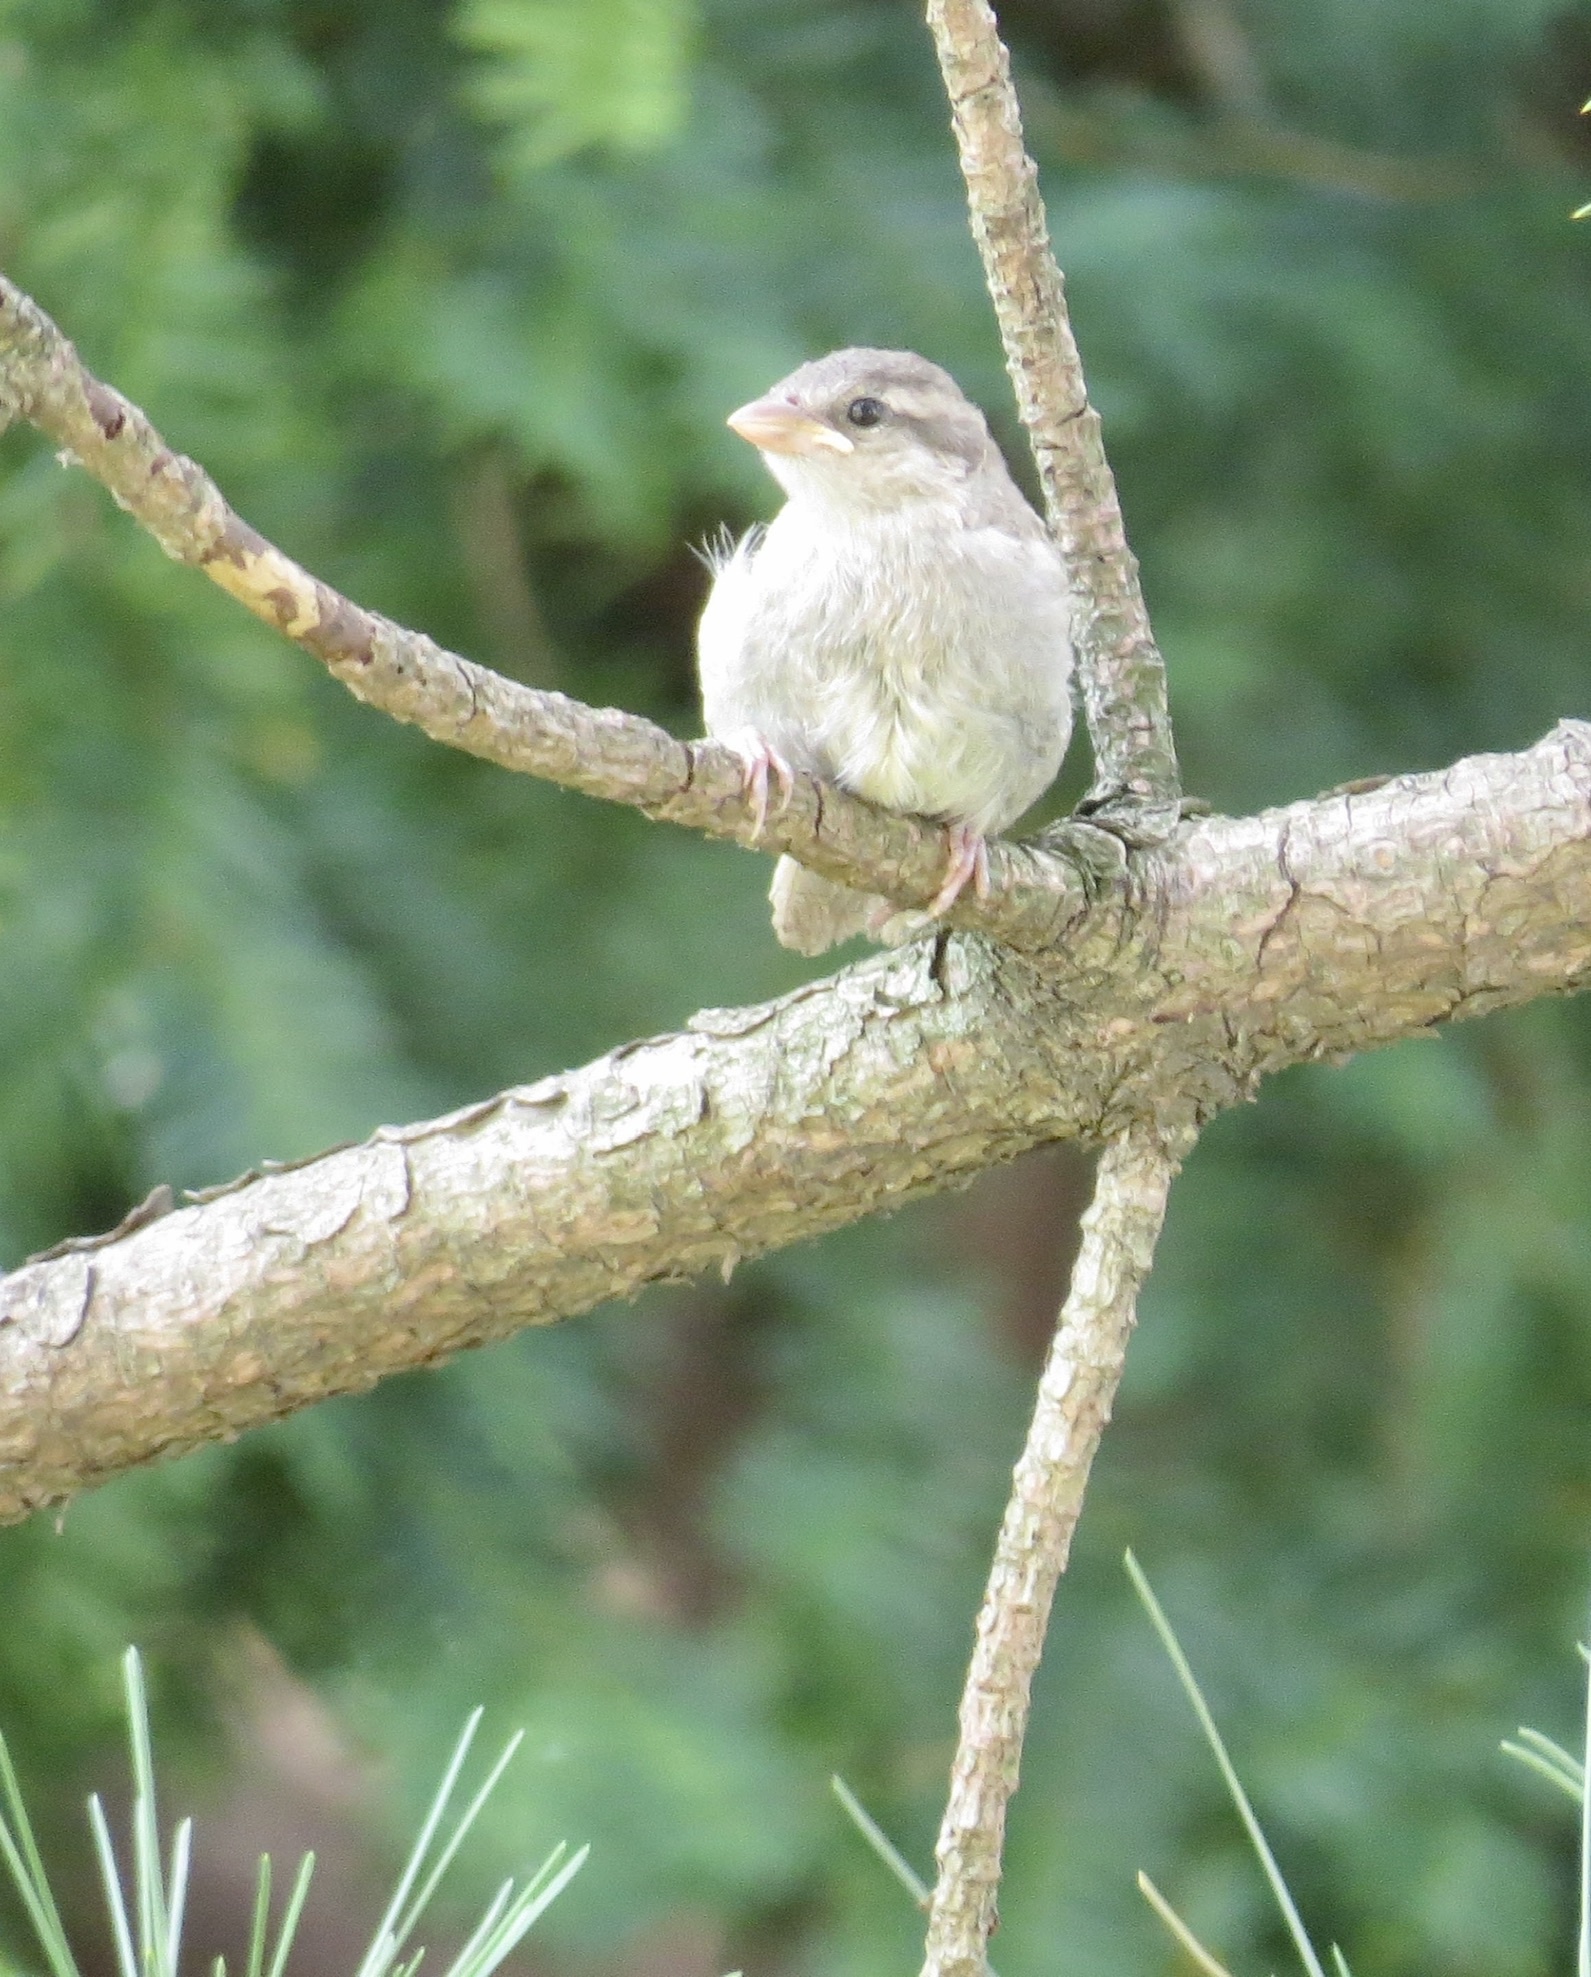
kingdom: Animalia
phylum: Chordata
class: Aves
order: Passeriformes
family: Passeridae
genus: Passer
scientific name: Passer domesticus
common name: House sparrow
